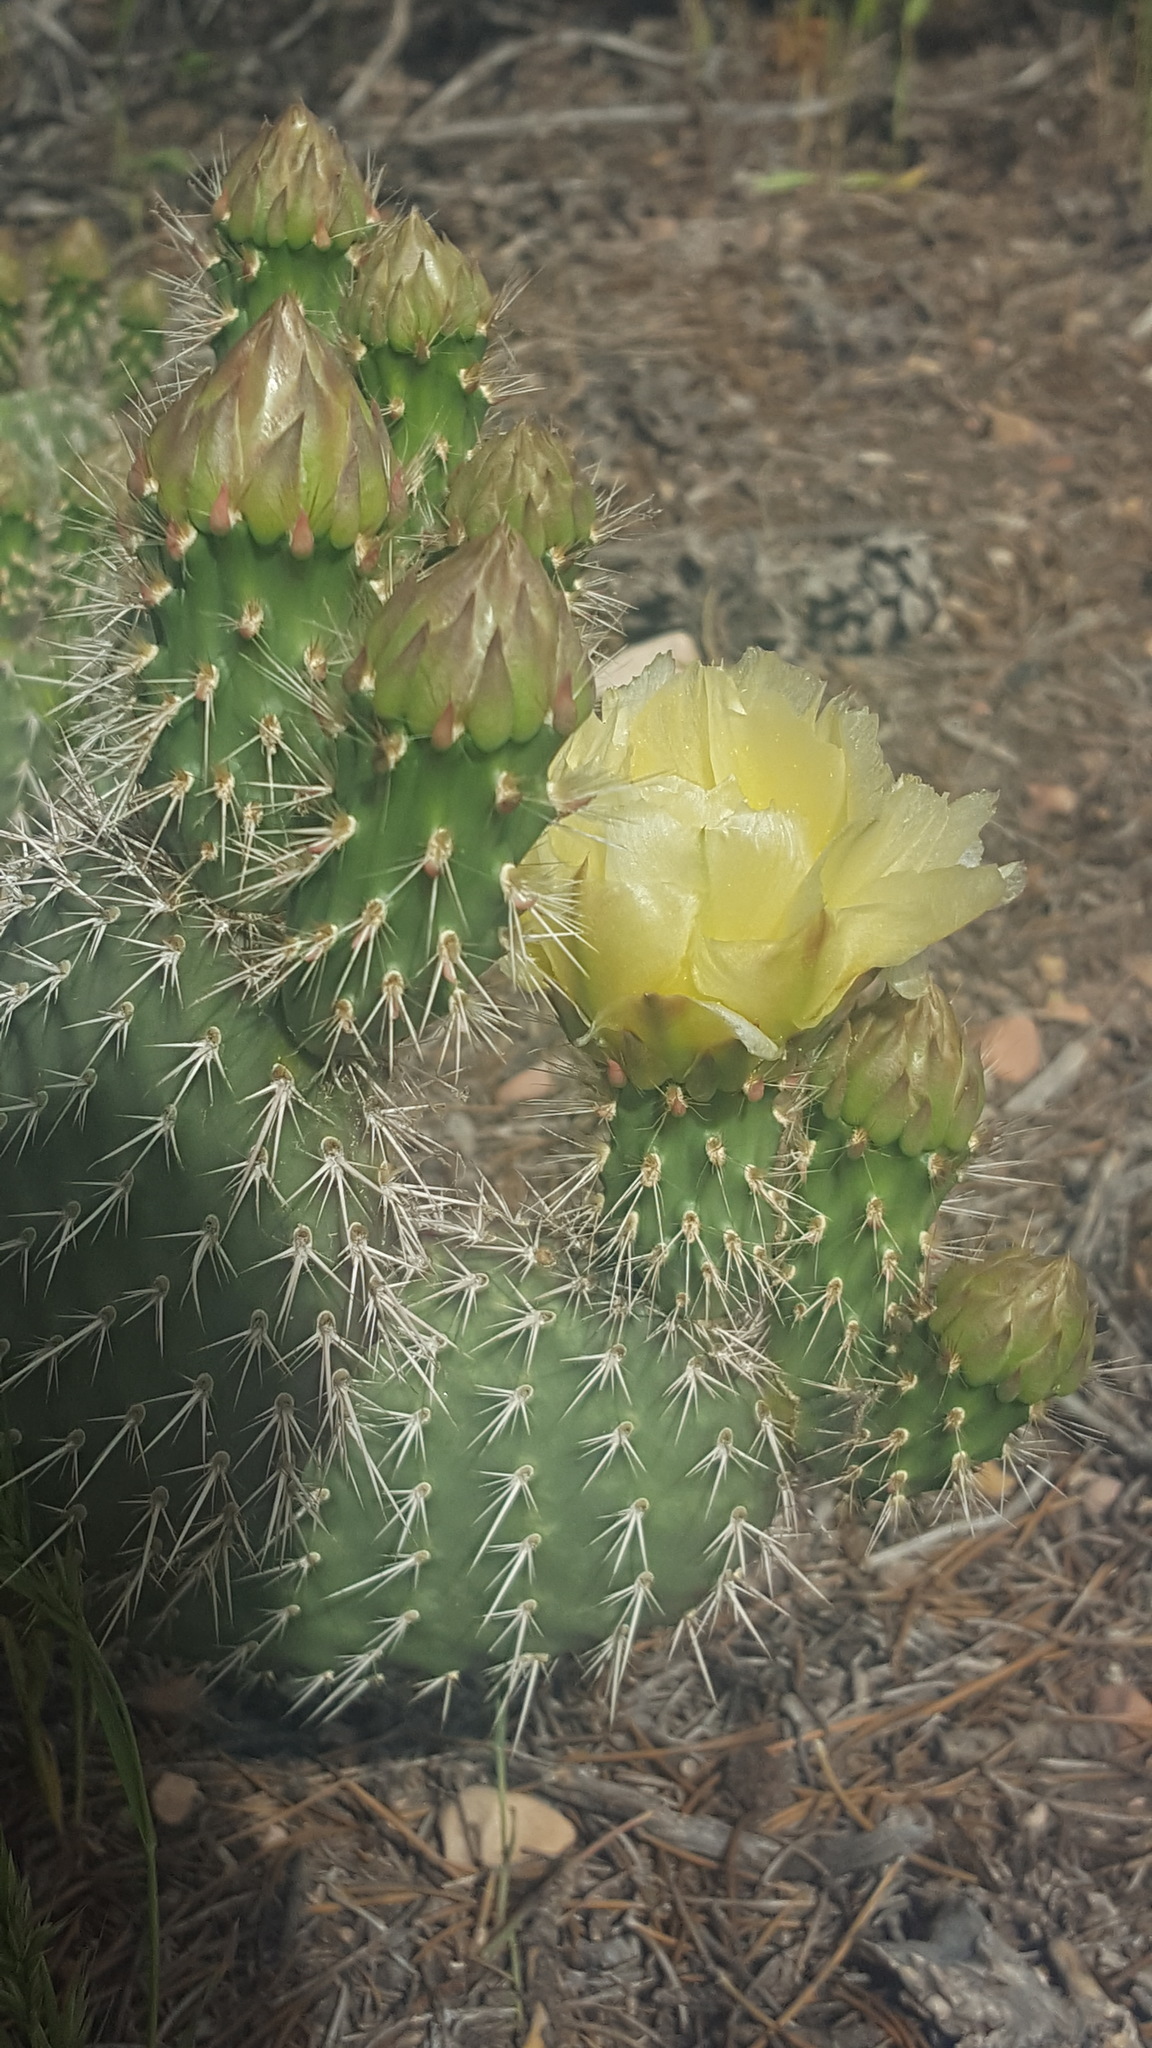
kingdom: Plantae
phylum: Tracheophyta
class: Magnoliopsida
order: Caryophyllales
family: Cactaceae
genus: Opuntia
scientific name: Opuntia polyacantha
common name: Plains prickly-pear
